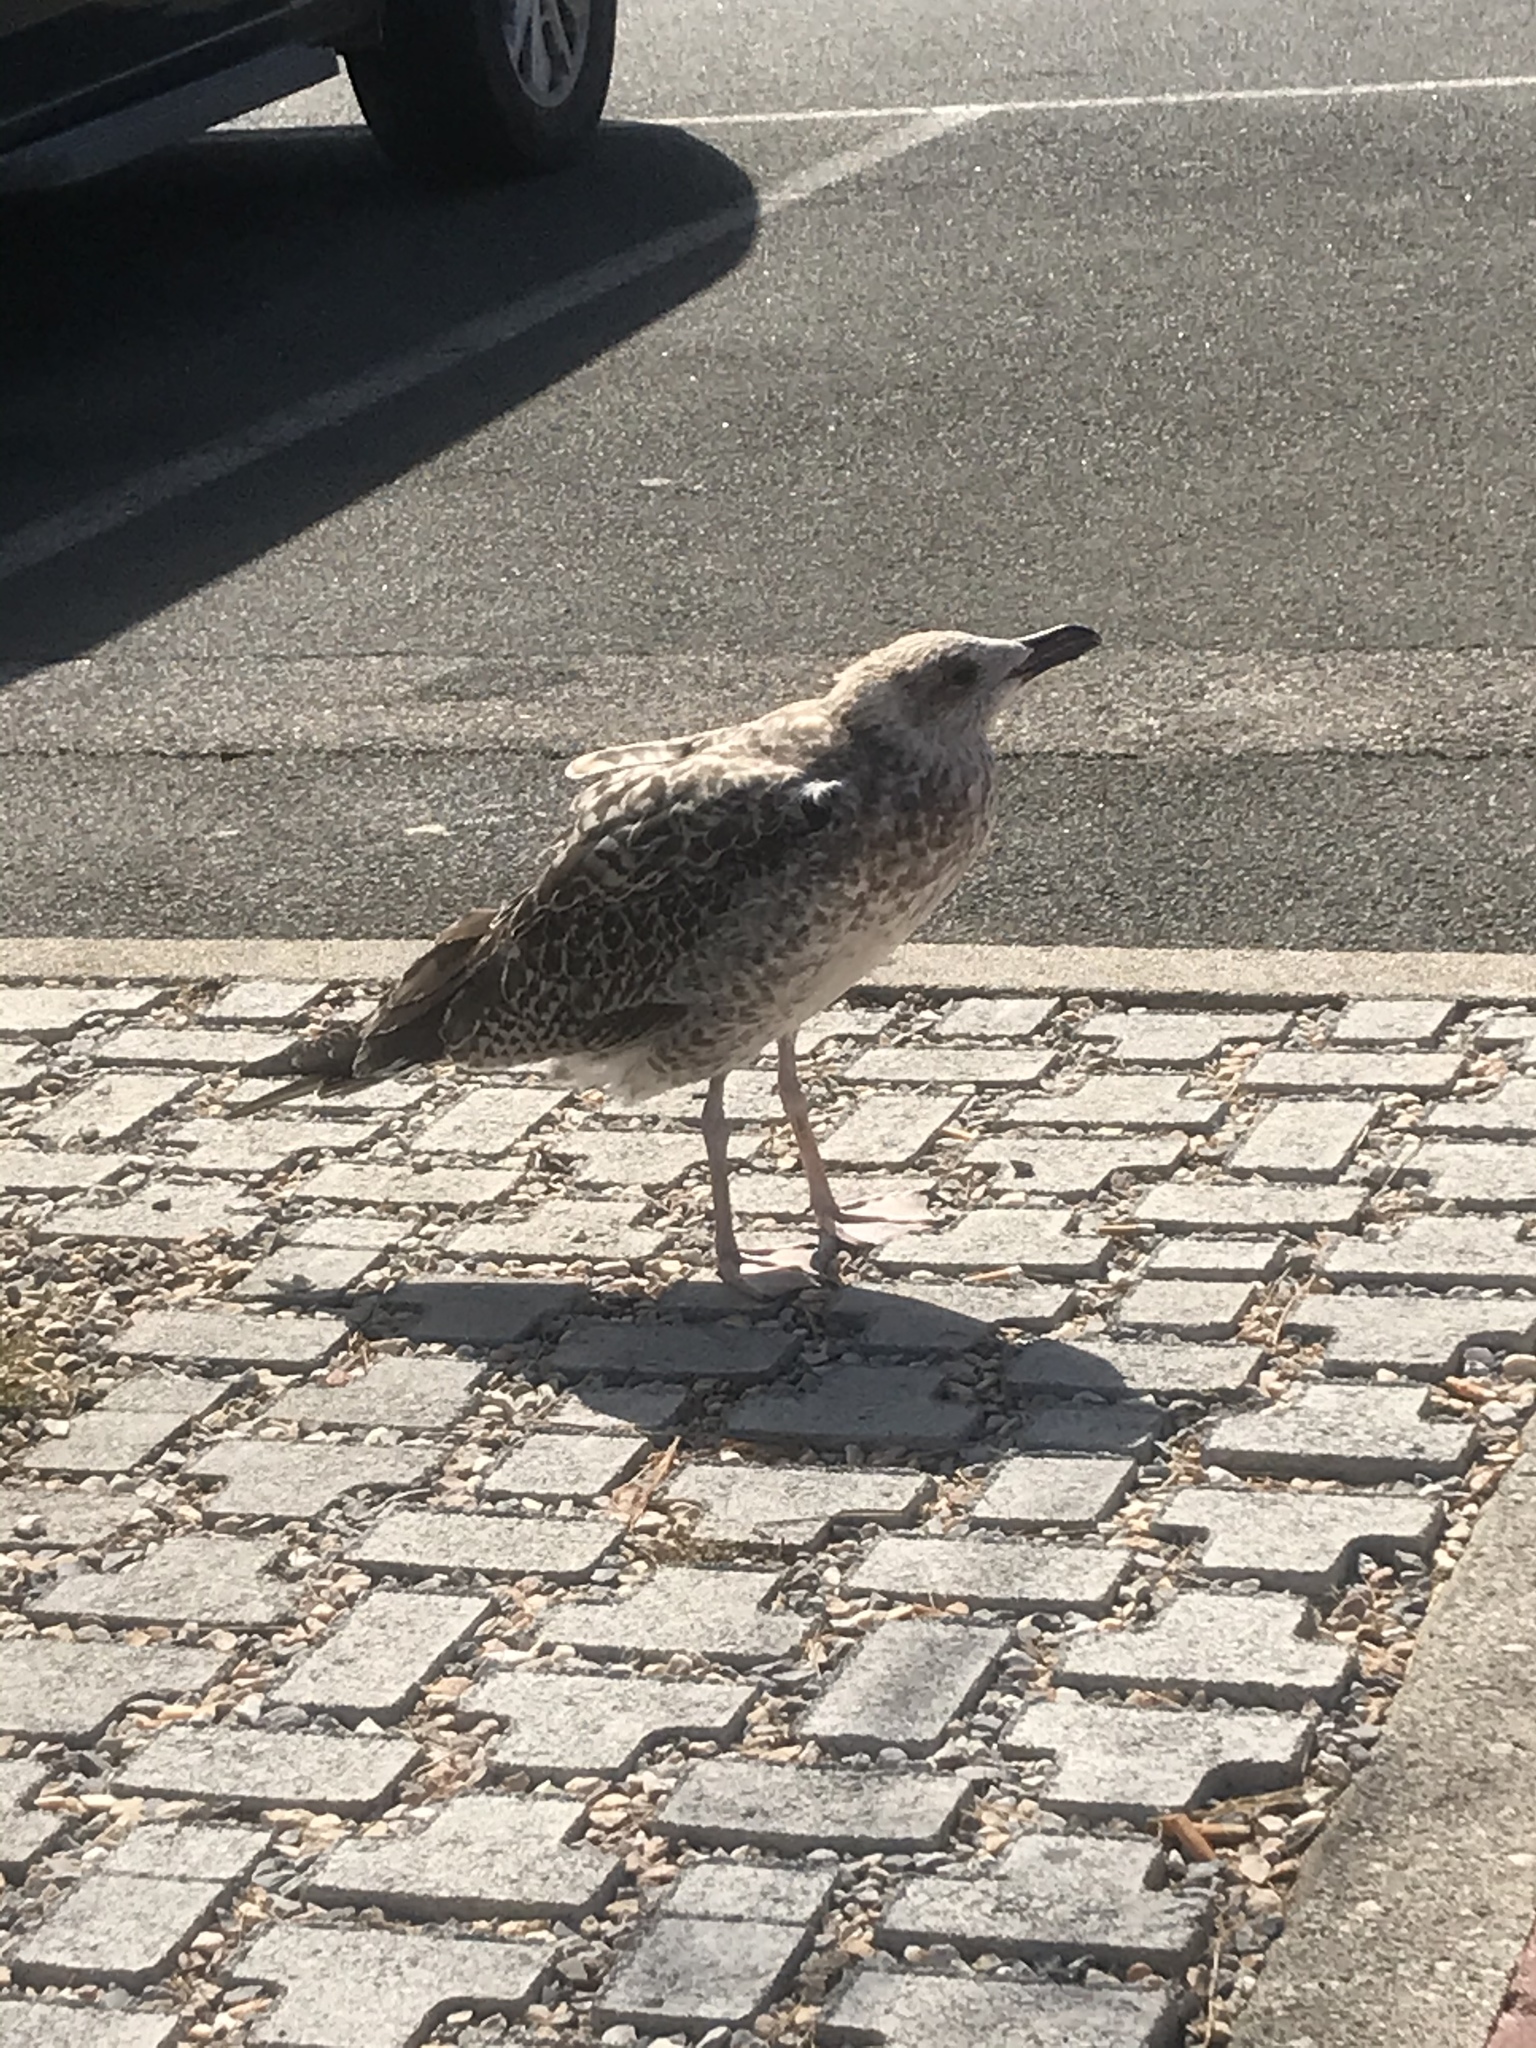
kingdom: Animalia
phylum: Chordata
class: Aves
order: Charadriiformes
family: Laridae
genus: Larus
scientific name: Larus michahellis
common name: Yellow-legged gull
